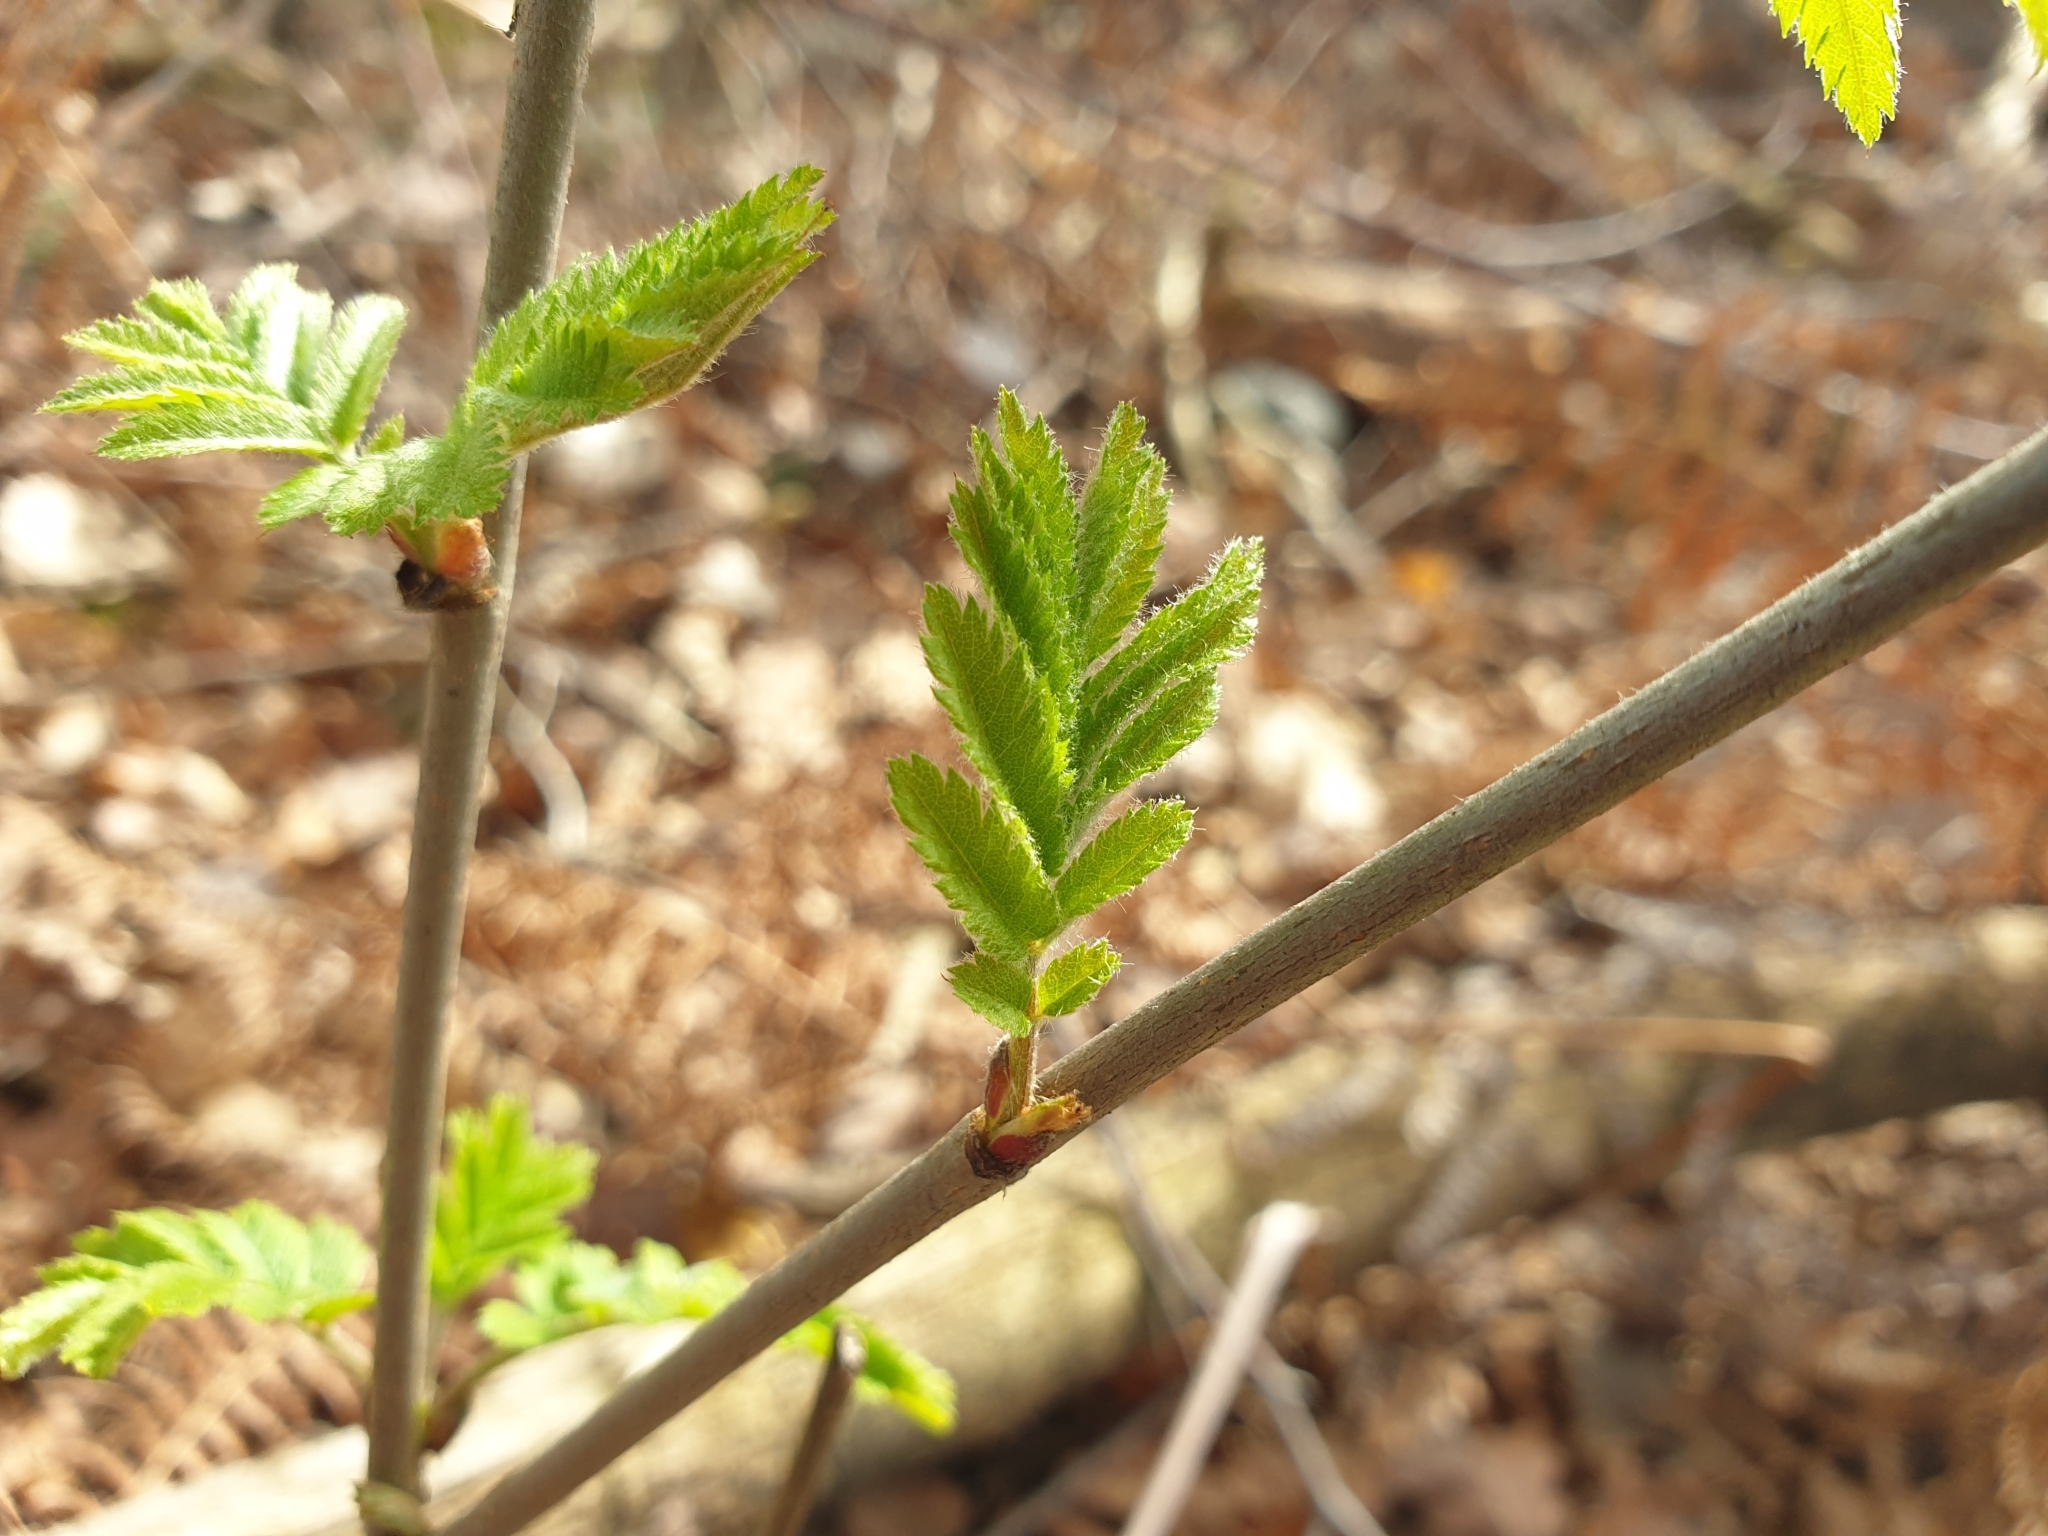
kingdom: Plantae
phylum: Tracheophyta
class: Magnoliopsida
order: Rosales
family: Rosaceae
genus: Sorbus
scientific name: Sorbus aucuparia
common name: Rowan
